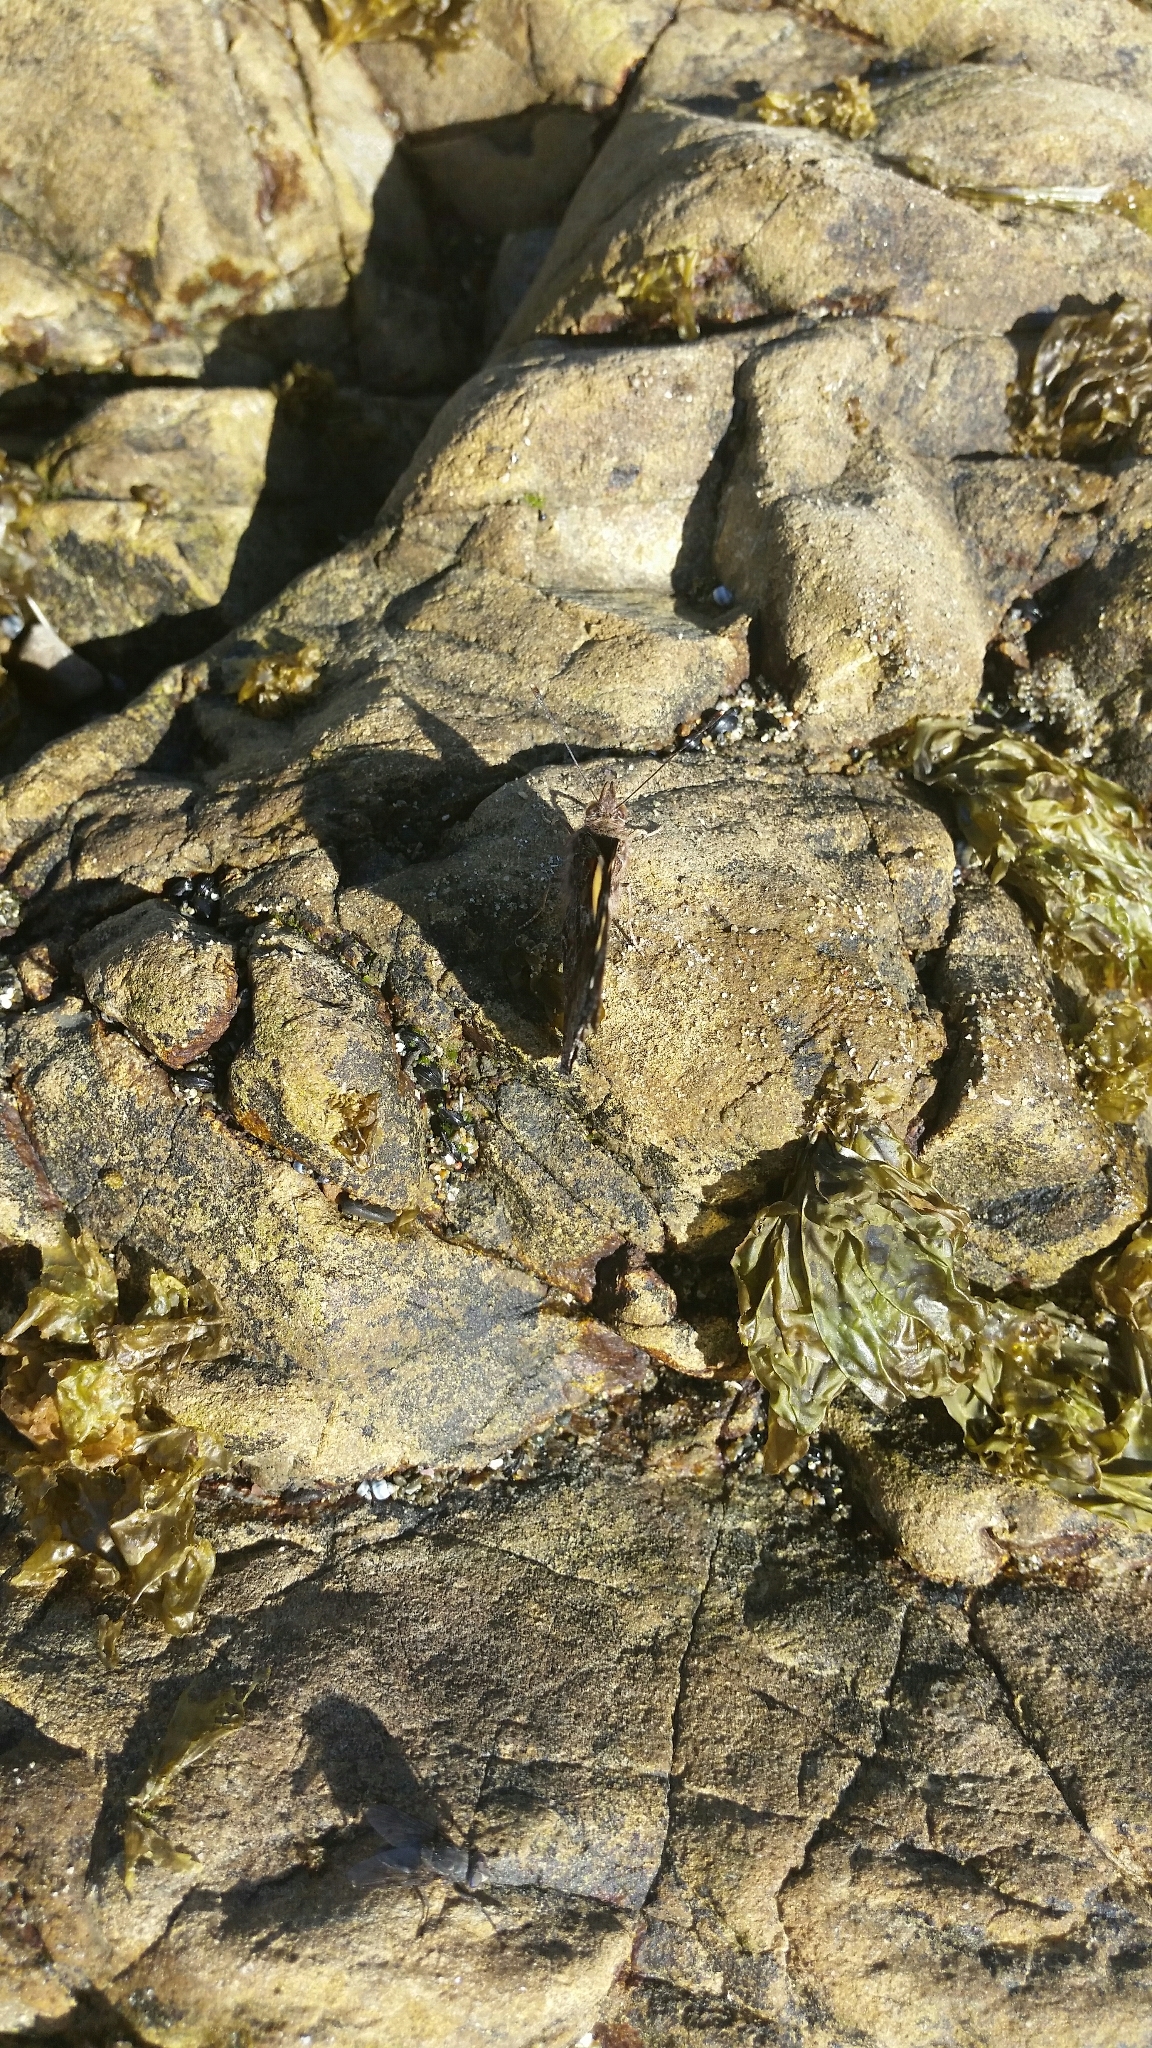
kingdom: Animalia
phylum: Arthropoda
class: Insecta
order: Lepidoptera
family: Nymphalidae
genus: Vanessa
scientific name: Vanessa itea
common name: Yellow admiral
